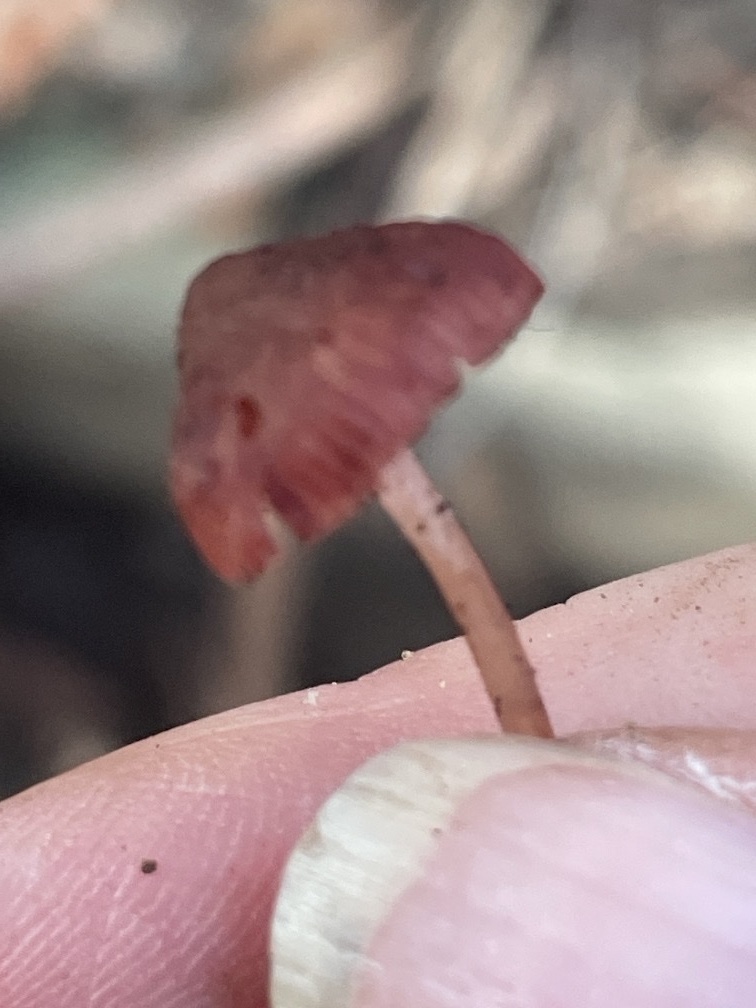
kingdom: Fungi
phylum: Basidiomycota
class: Agaricomycetes
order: Agaricales
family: Mycenaceae
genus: Mycena
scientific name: Mycena haematopus
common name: Burgundydrop bonnet
